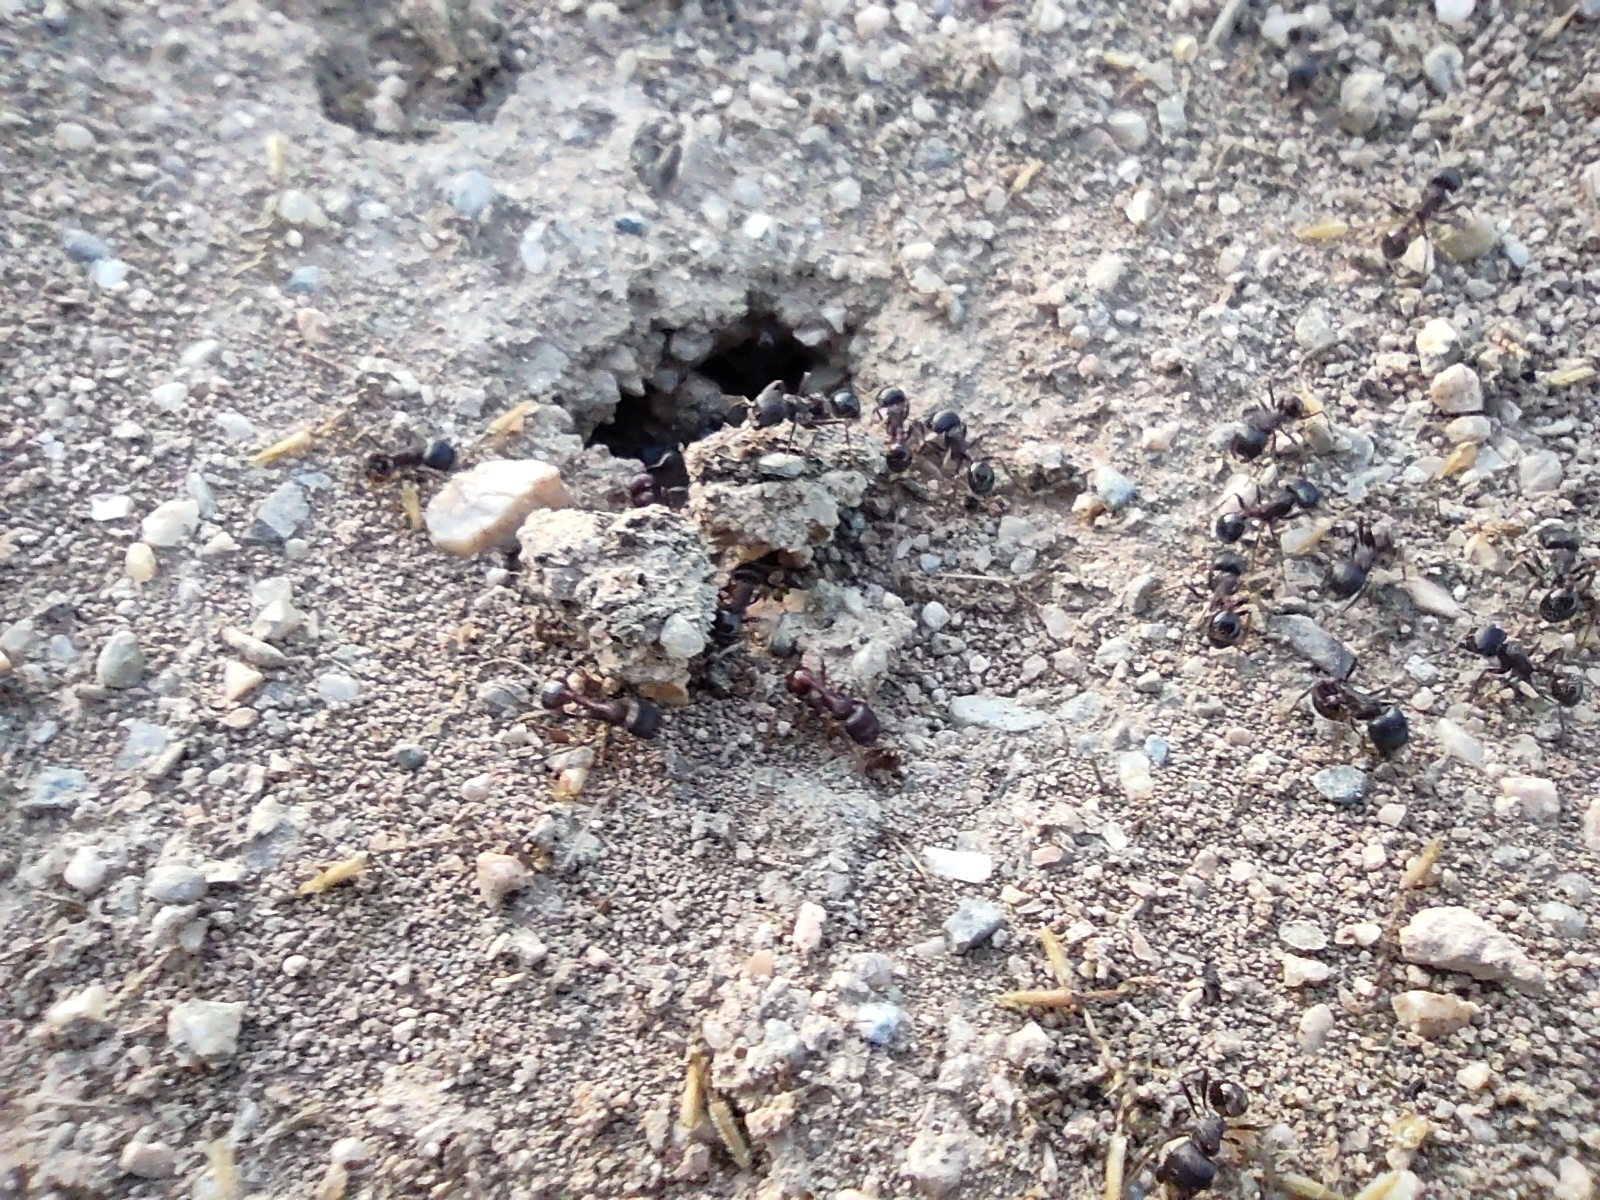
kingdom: Animalia
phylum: Arthropoda
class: Insecta
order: Hymenoptera
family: Formicidae
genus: Pogonomyrmex
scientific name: Pogonomyrmex rugosus
